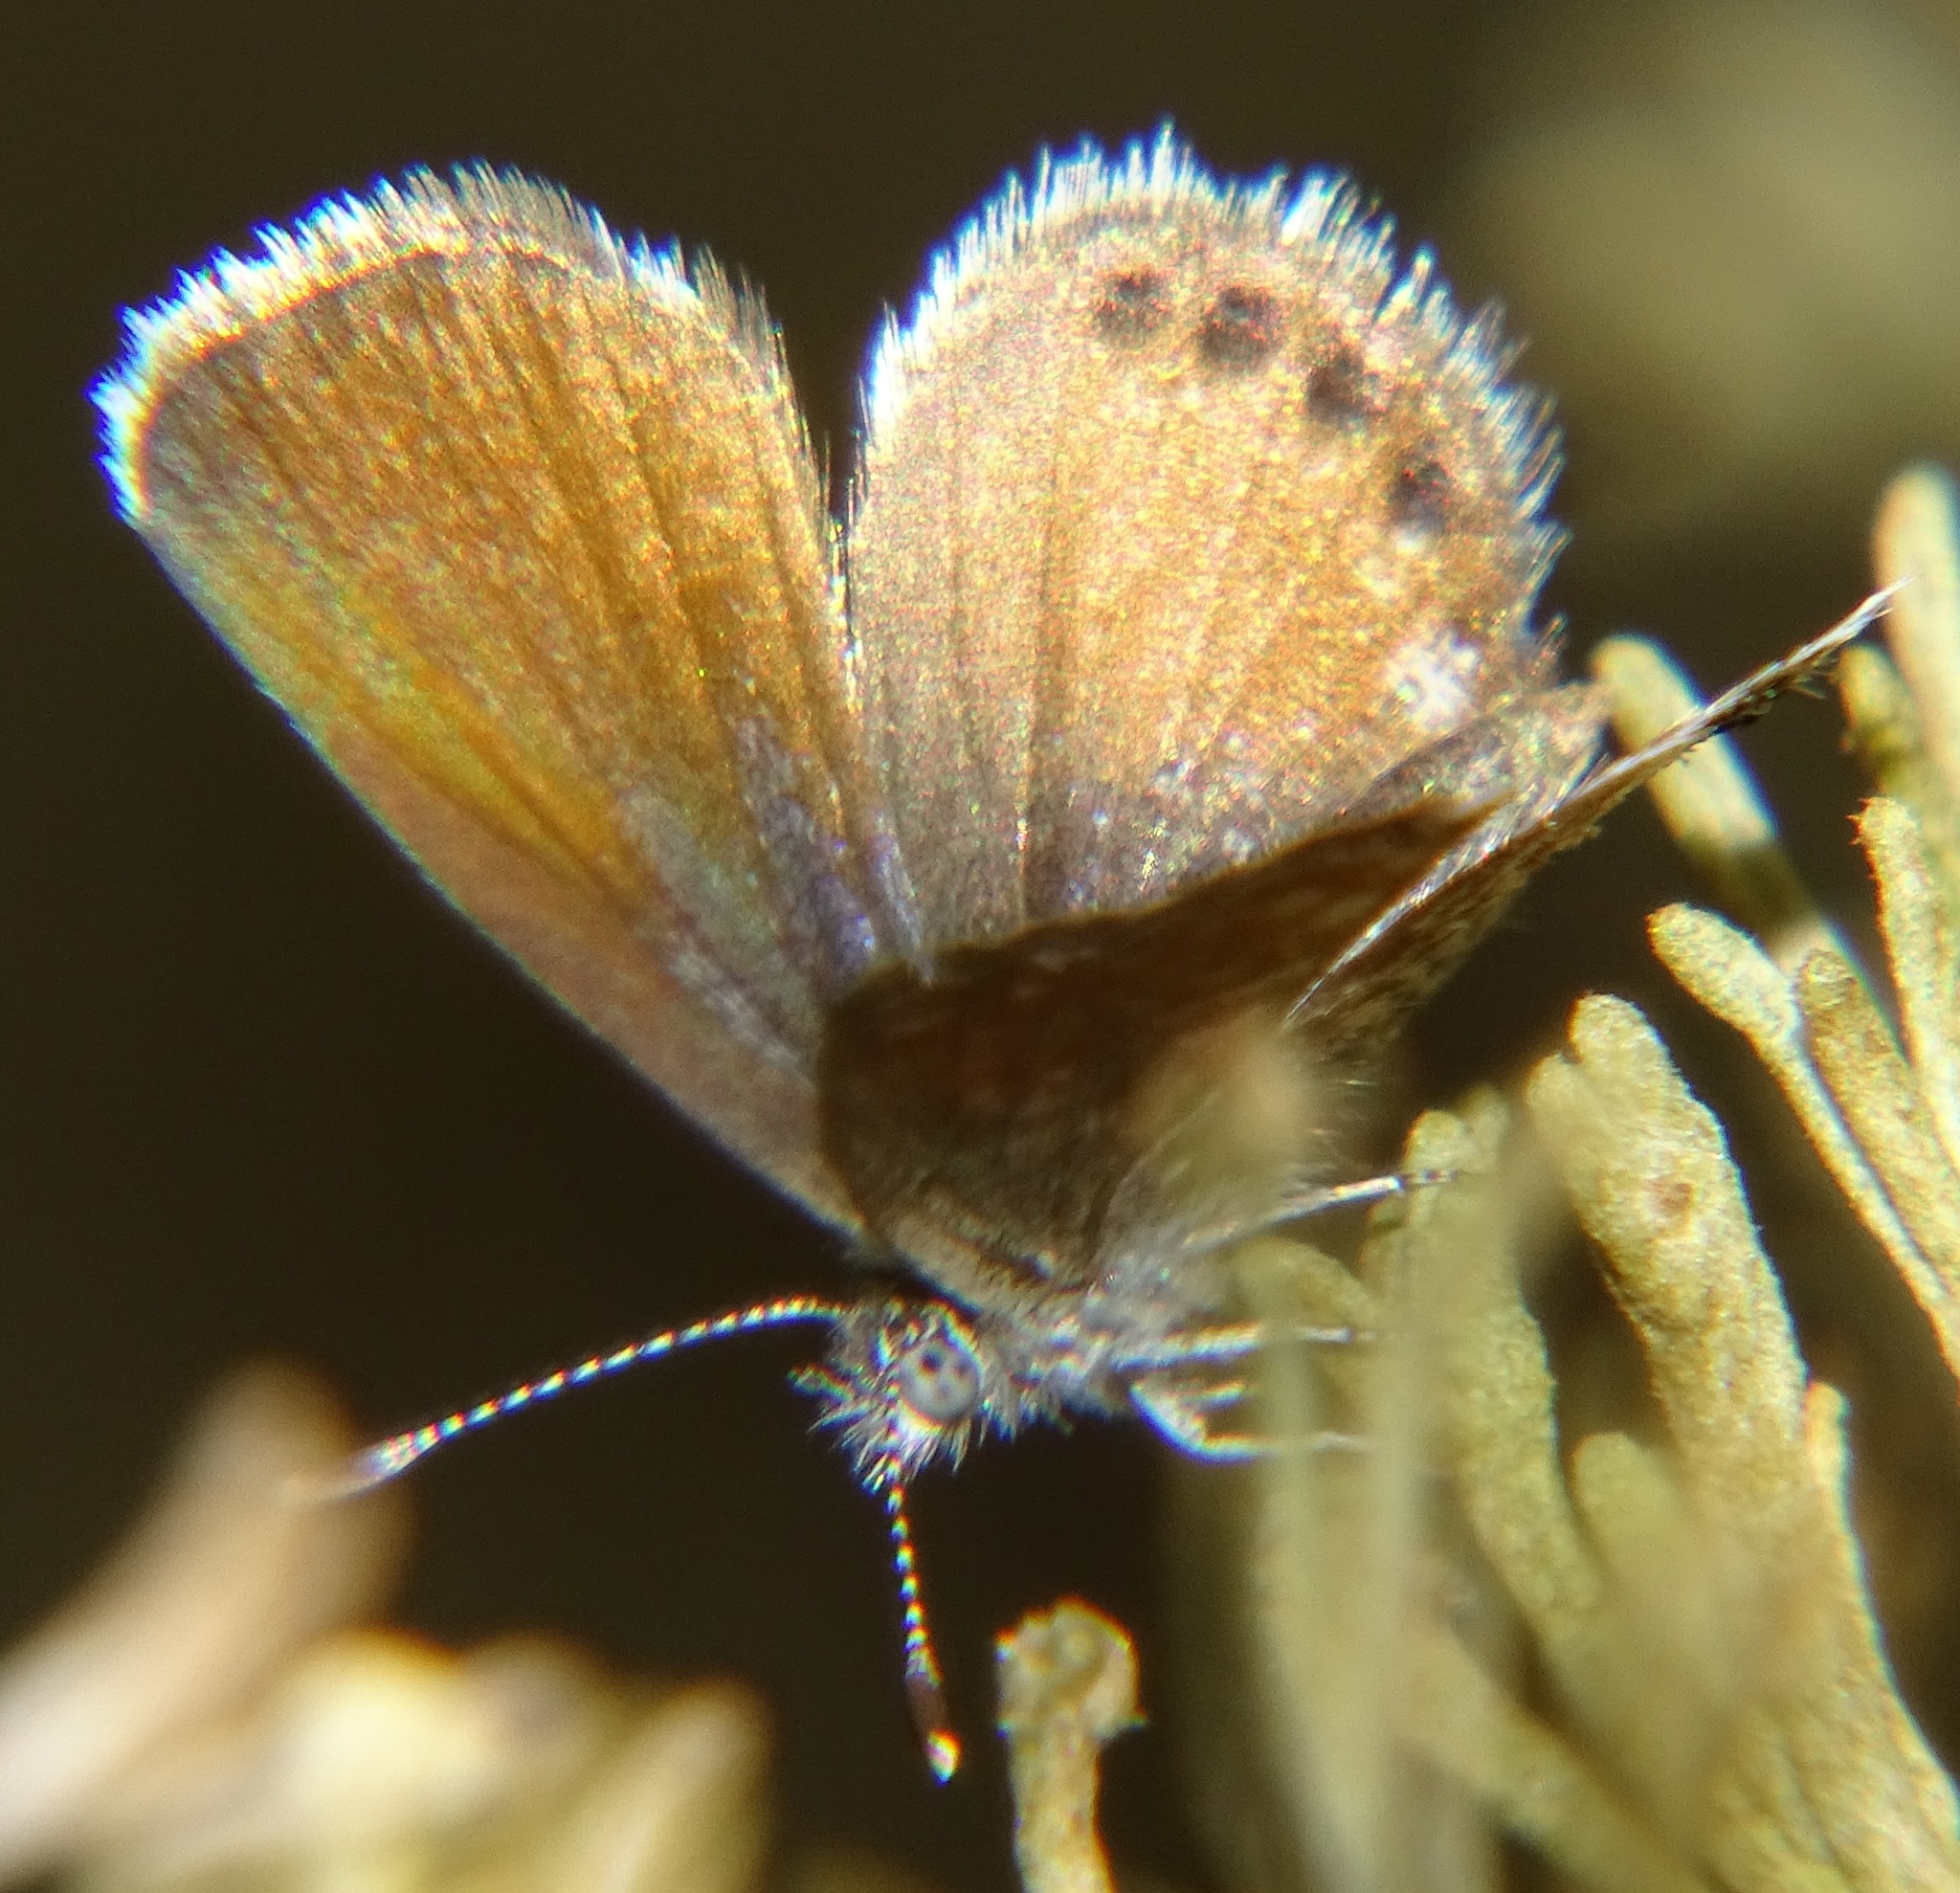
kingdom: Animalia
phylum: Arthropoda
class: Insecta
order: Lepidoptera
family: Lycaenidae
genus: Brephidium
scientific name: Brephidium exilis
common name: Pygmy blue
